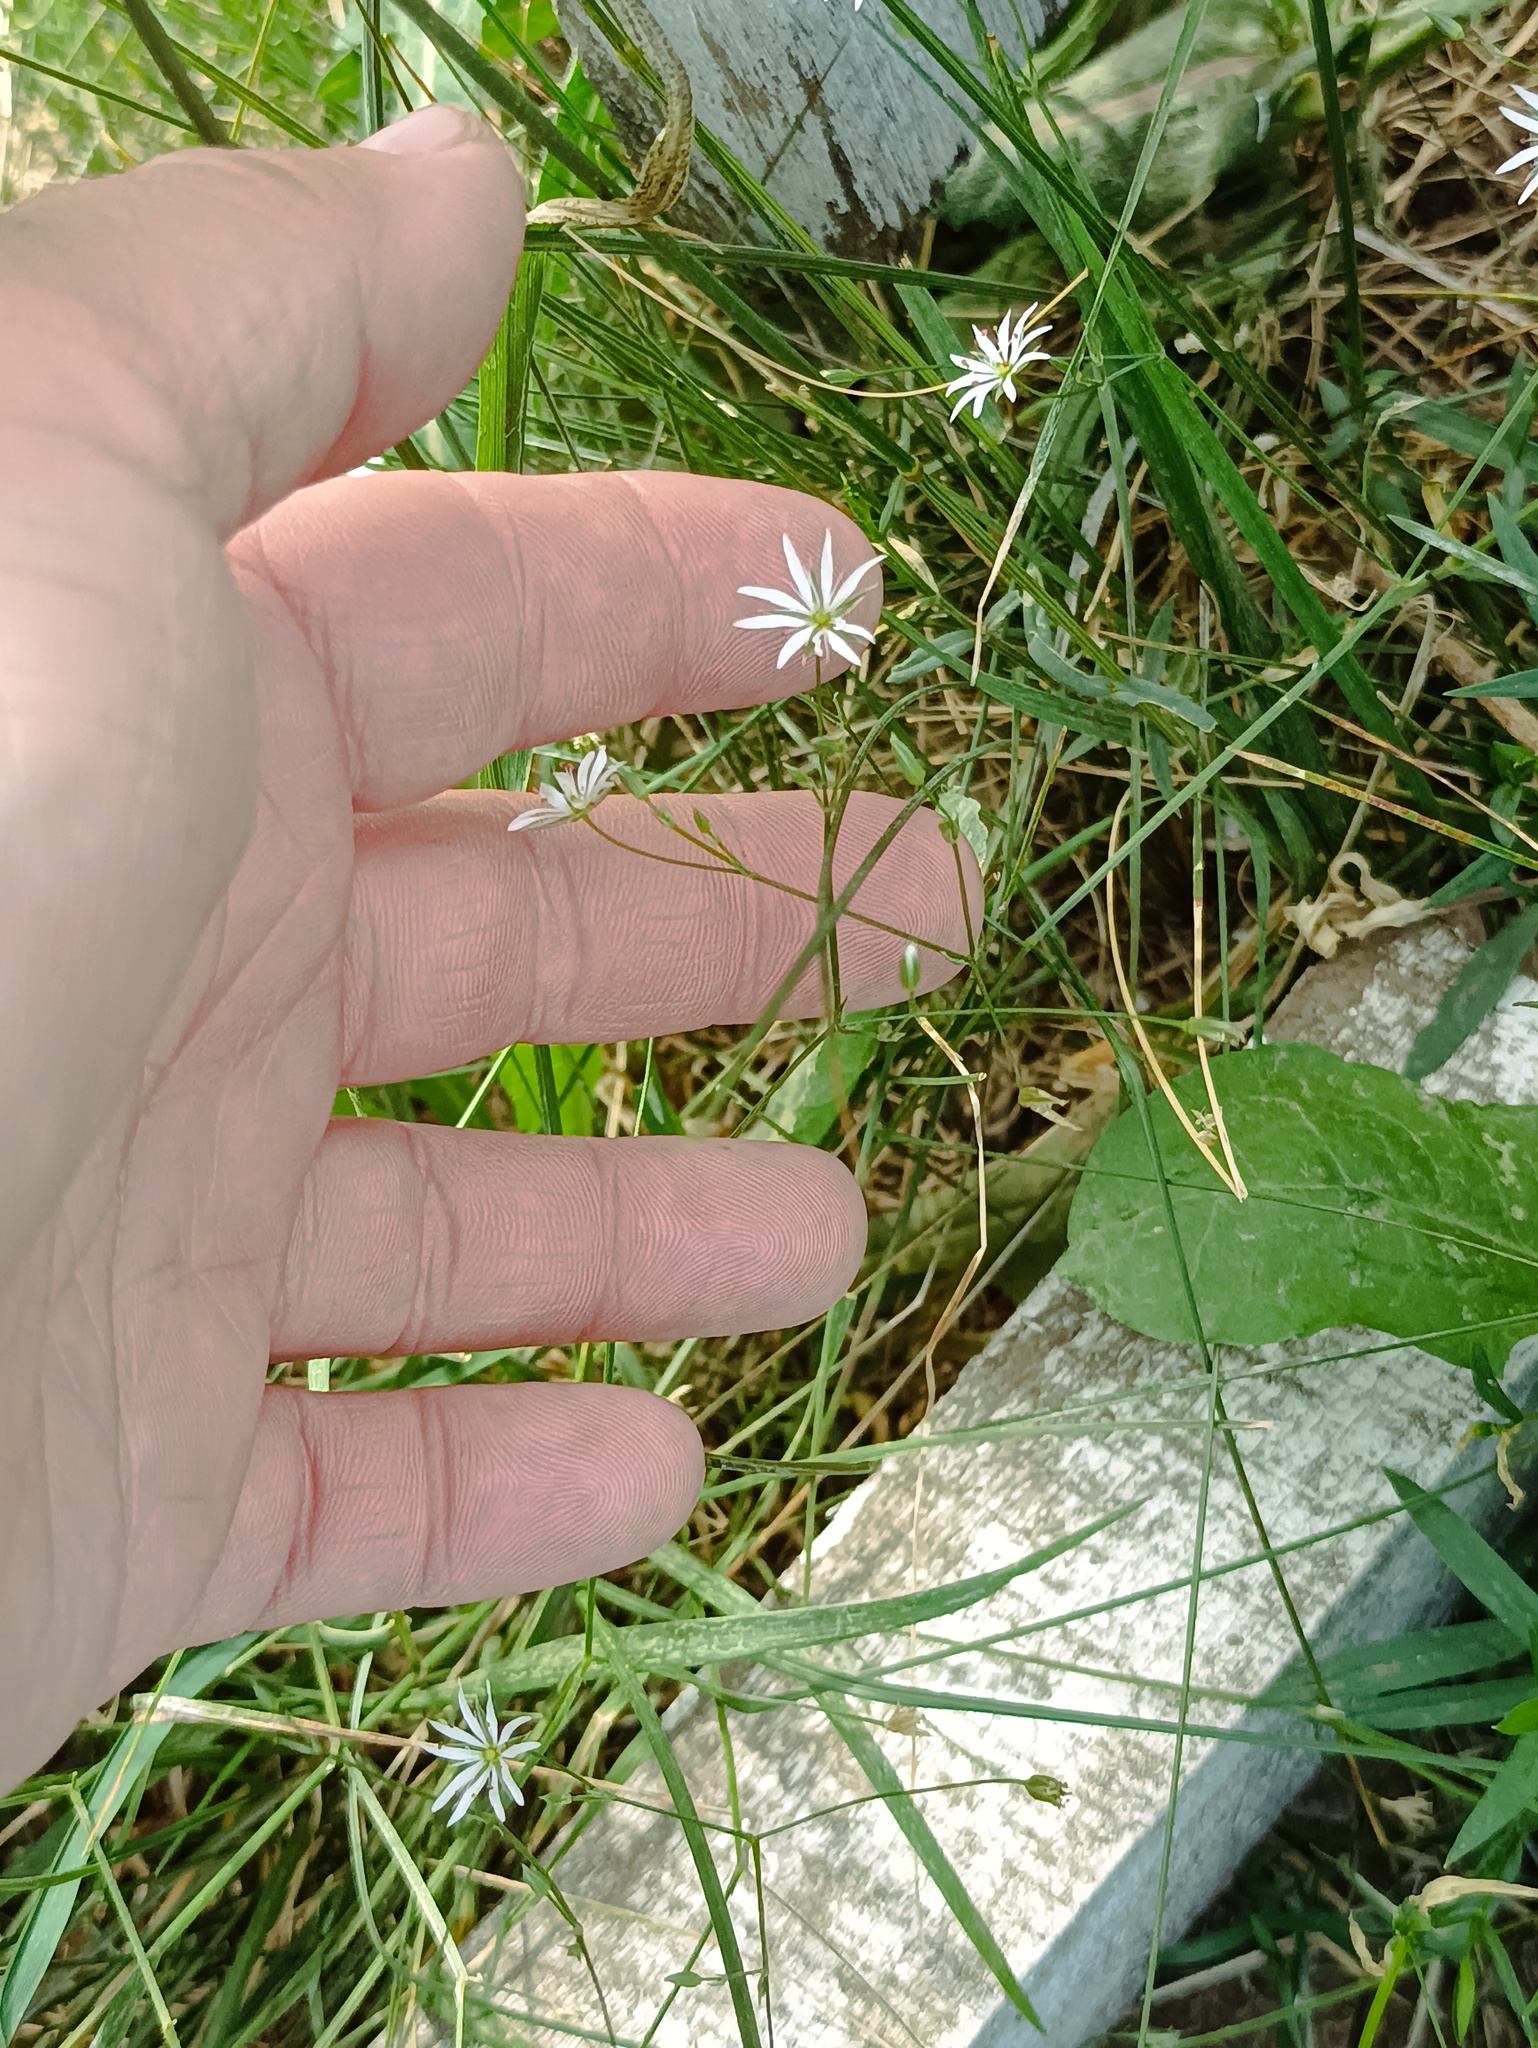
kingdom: Plantae
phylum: Tracheophyta
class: Magnoliopsida
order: Caryophyllales
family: Caryophyllaceae
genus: Stellaria
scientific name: Stellaria graminea
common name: Grass-like starwort
